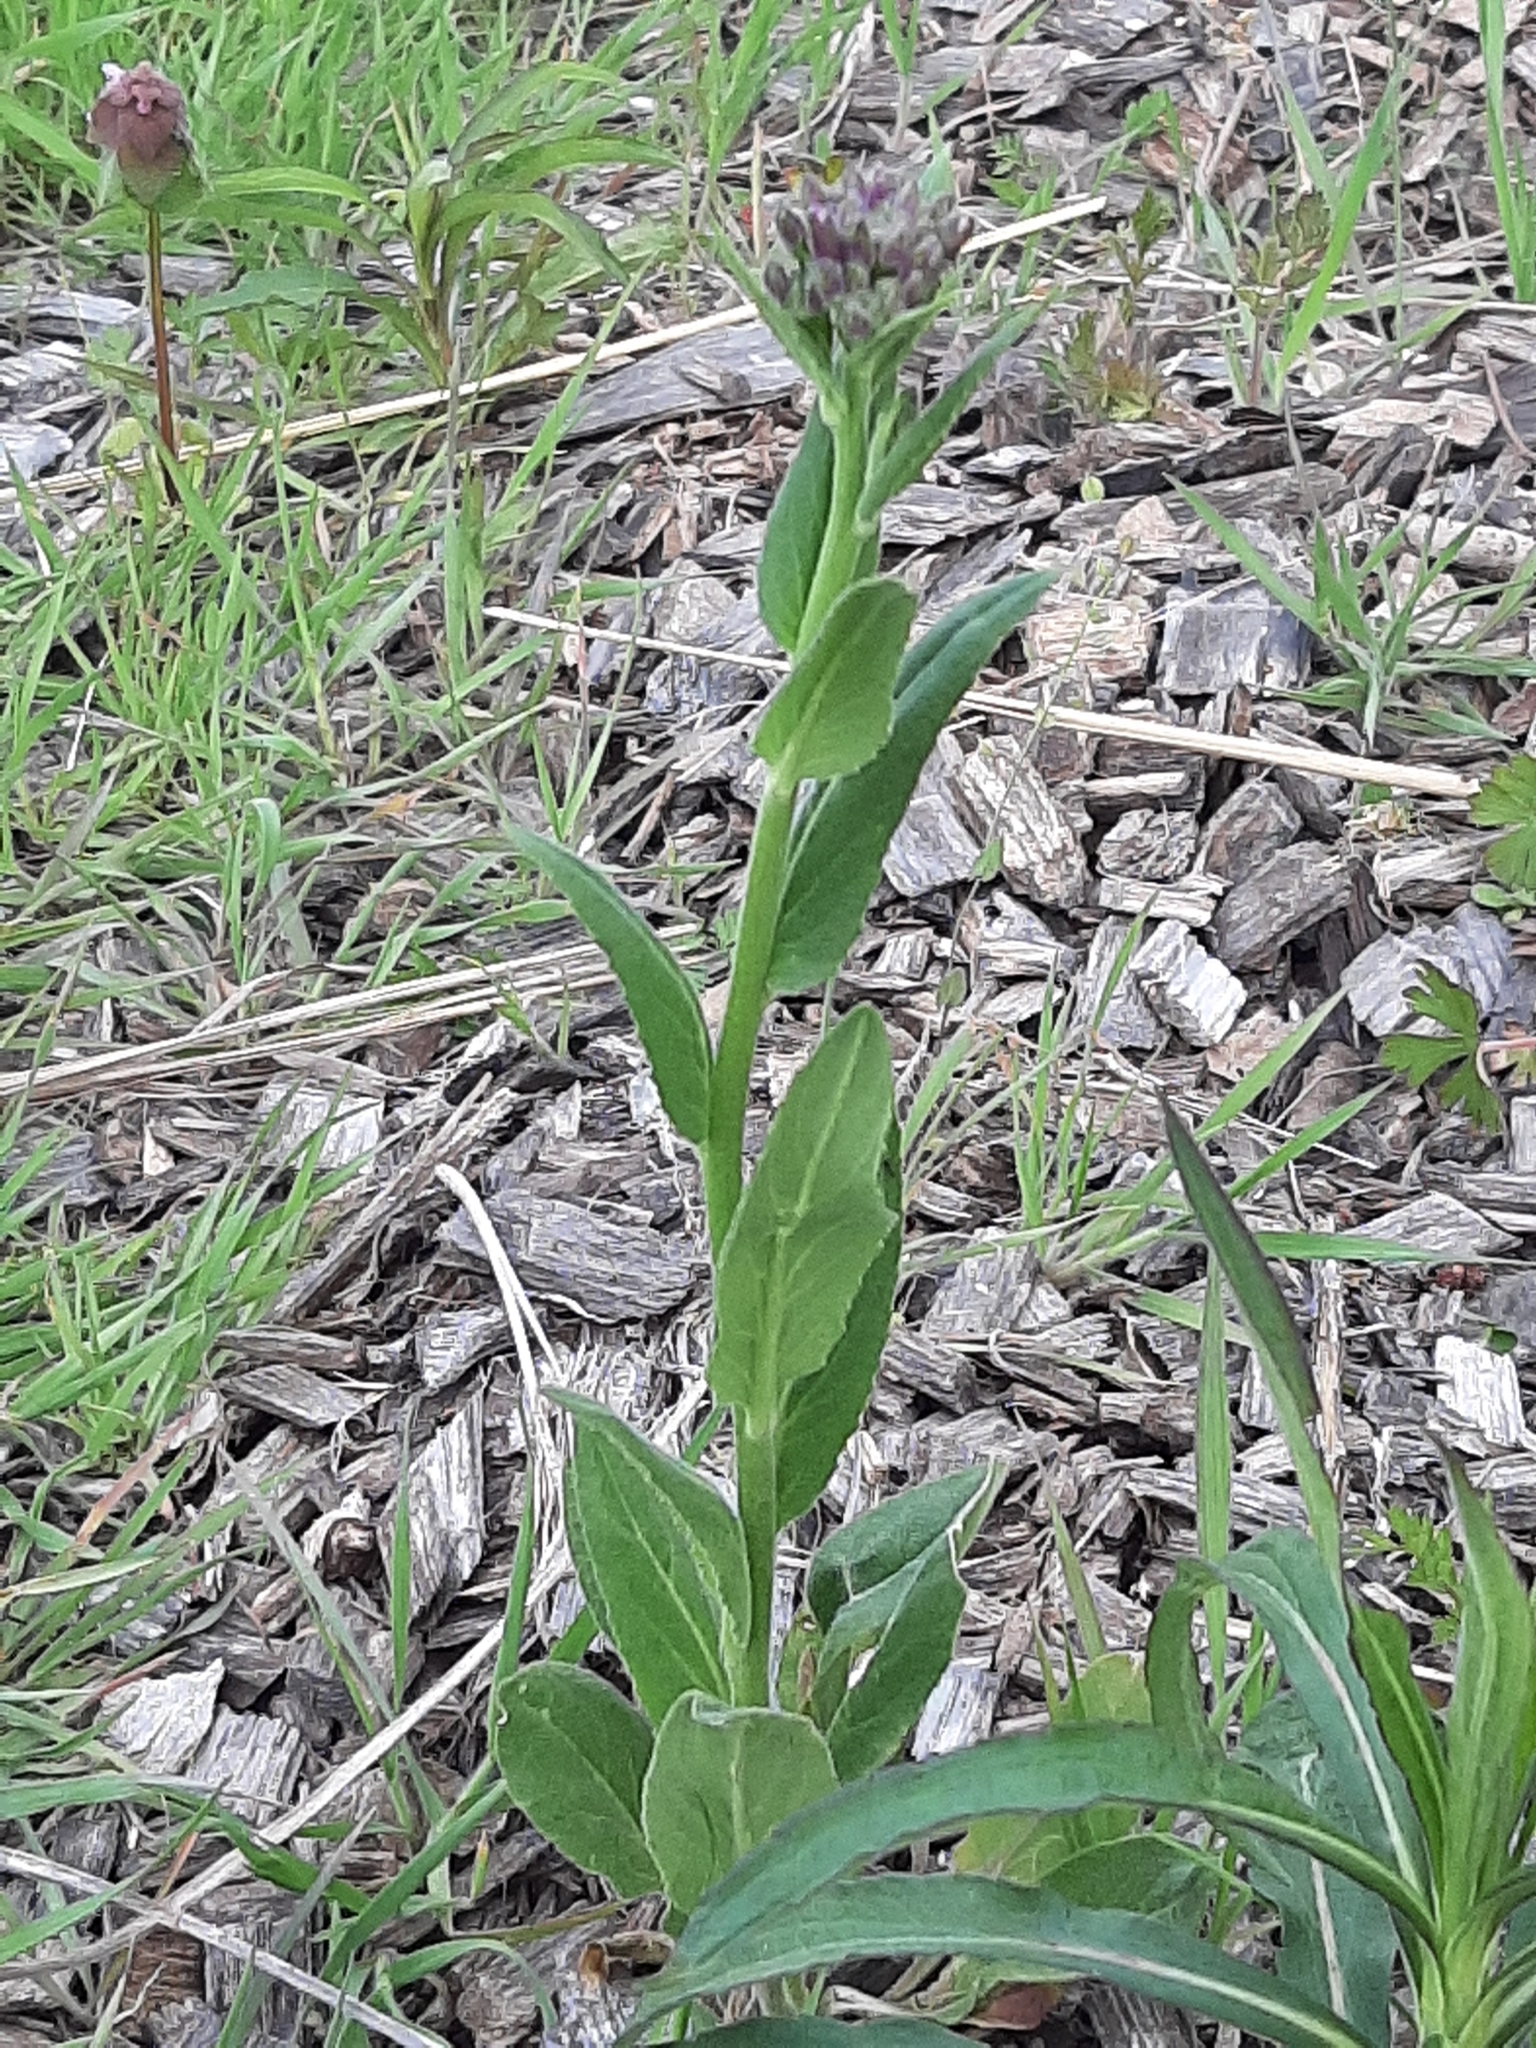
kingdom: Plantae
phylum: Tracheophyta
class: Magnoliopsida
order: Brassicales
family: Brassicaceae
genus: Hesperis
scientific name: Hesperis matronalis
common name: Dame's-violet
